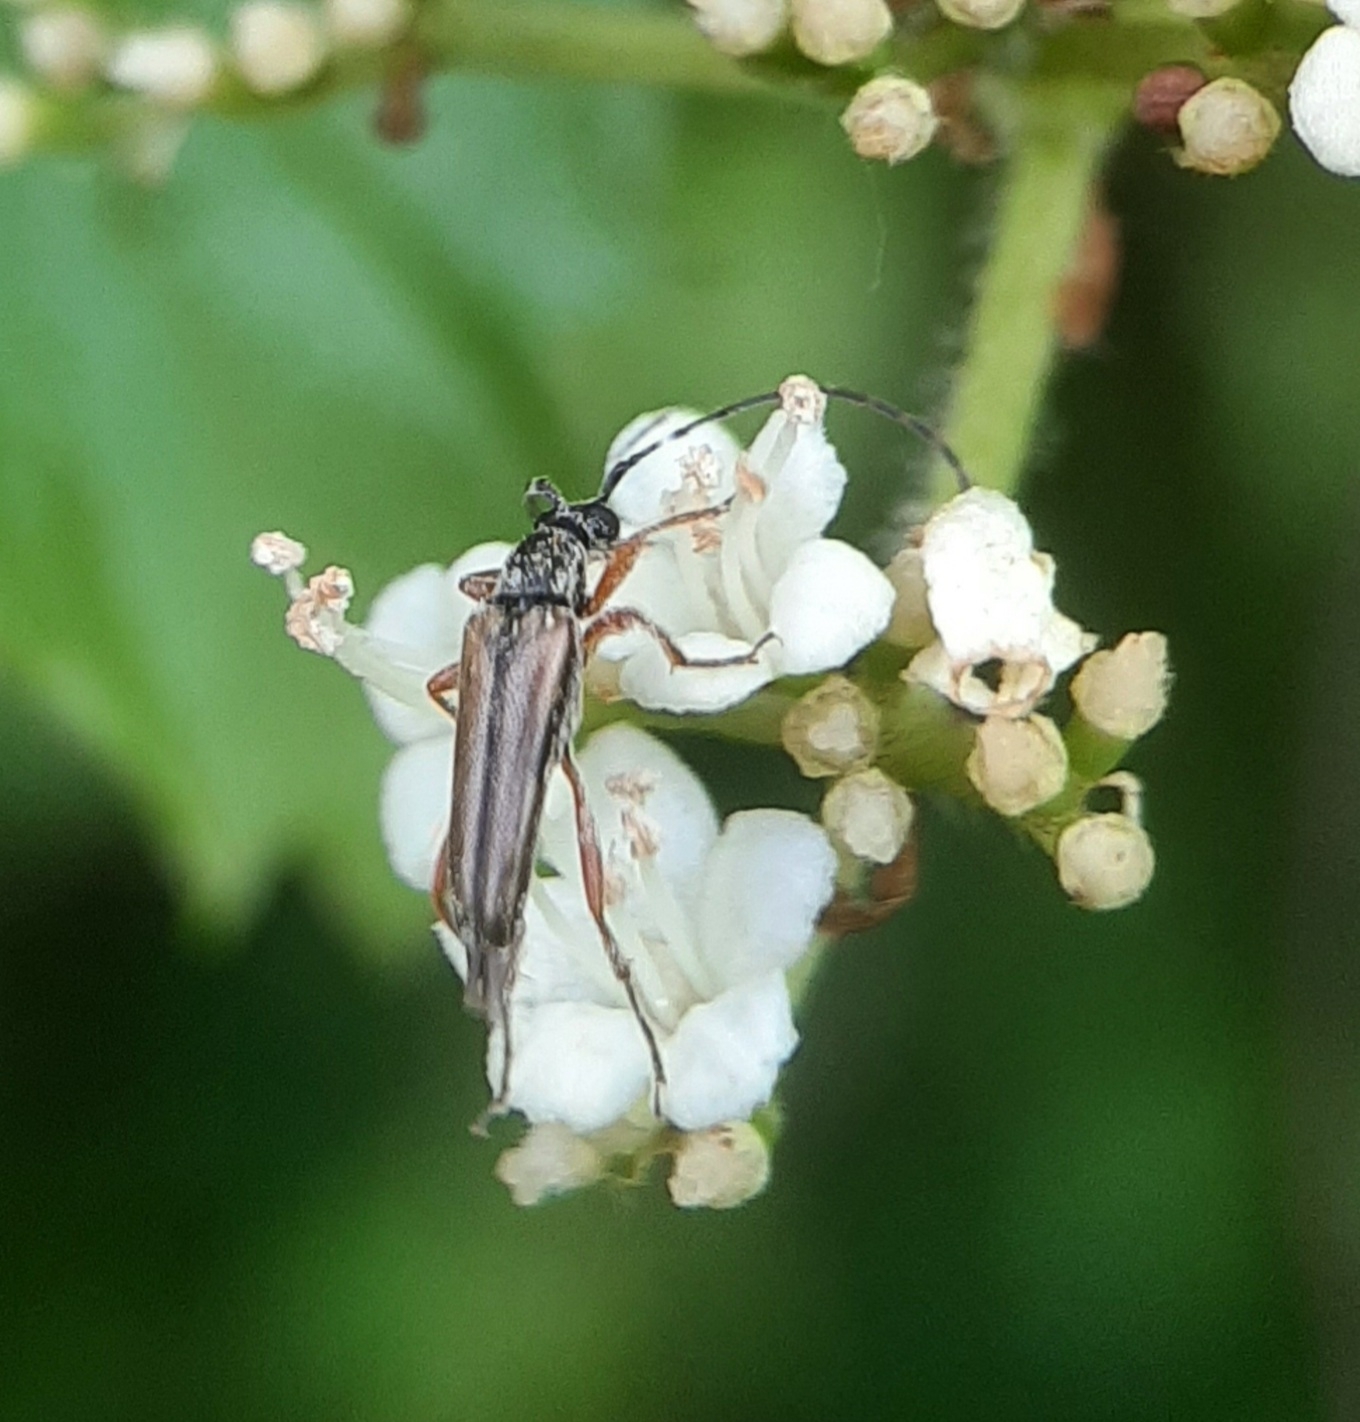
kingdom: Animalia
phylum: Arthropoda
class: Insecta
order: Coleoptera
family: Cerambycidae
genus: Analeptura
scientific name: Analeptura lineola
